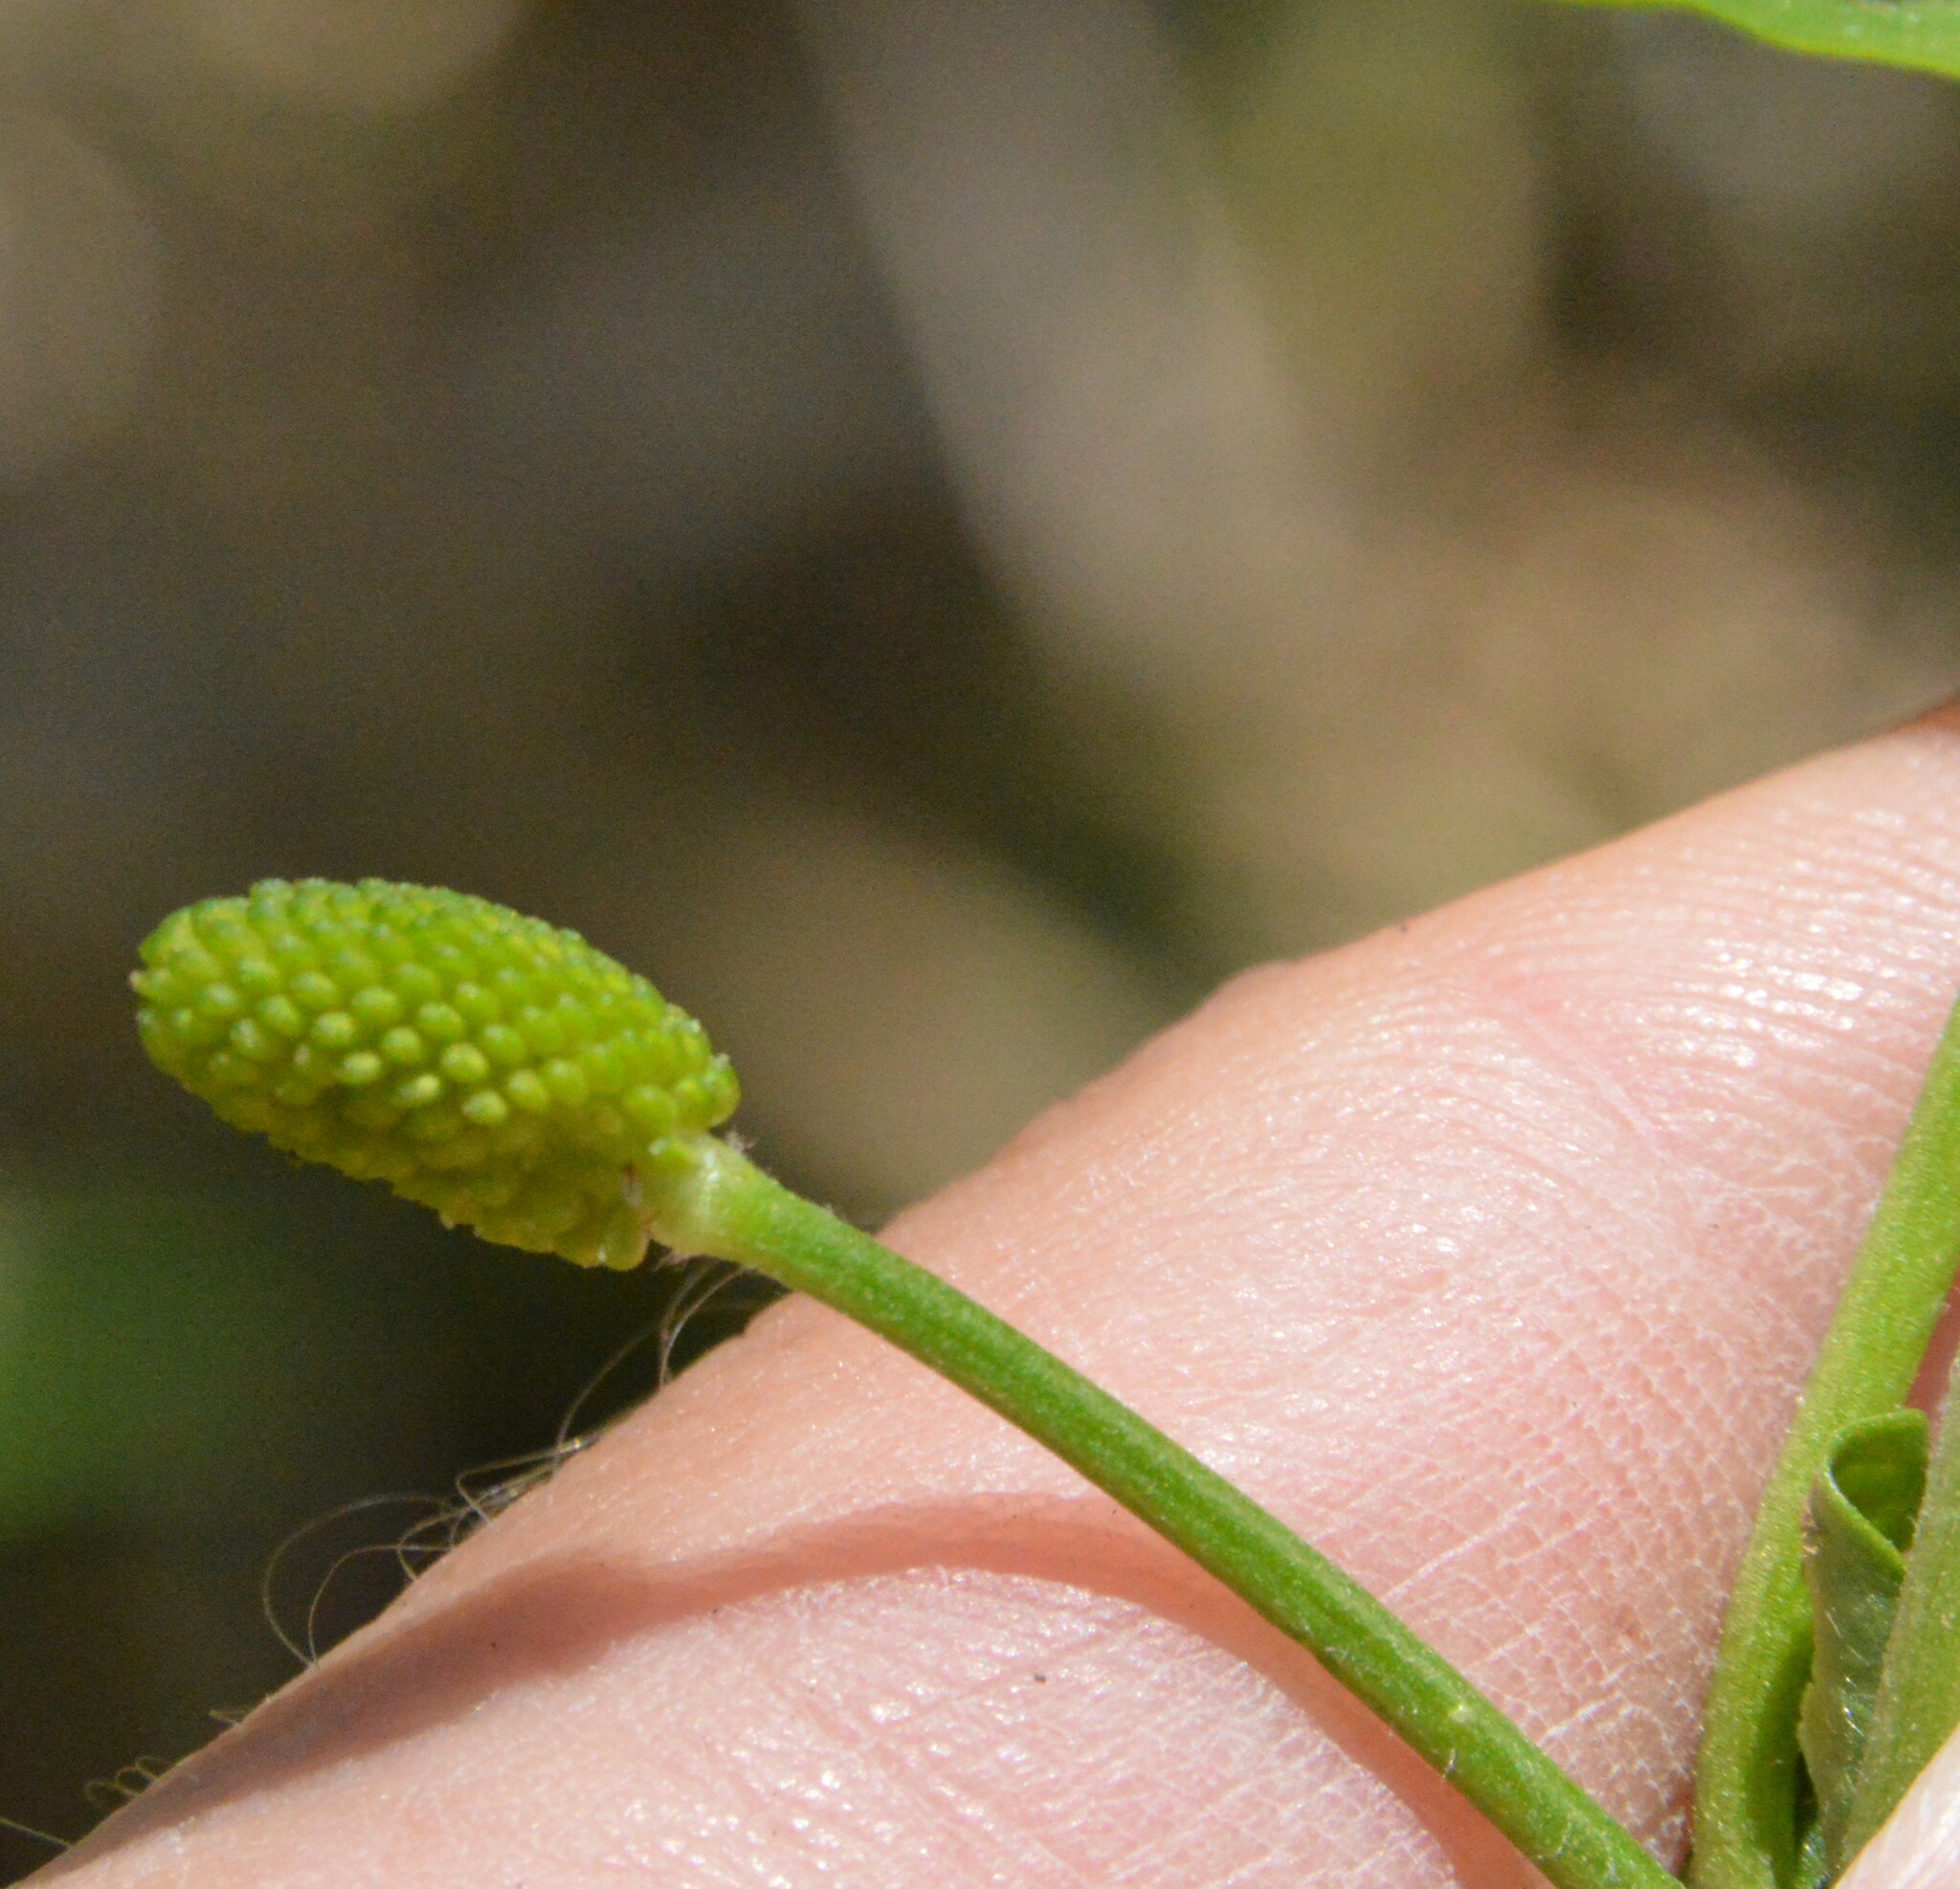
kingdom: Plantae
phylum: Tracheophyta
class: Magnoliopsida
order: Ranunculales
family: Ranunculaceae
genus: Ranunculus
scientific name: Ranunculus sceleratus
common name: Celery-leaved buttercup
